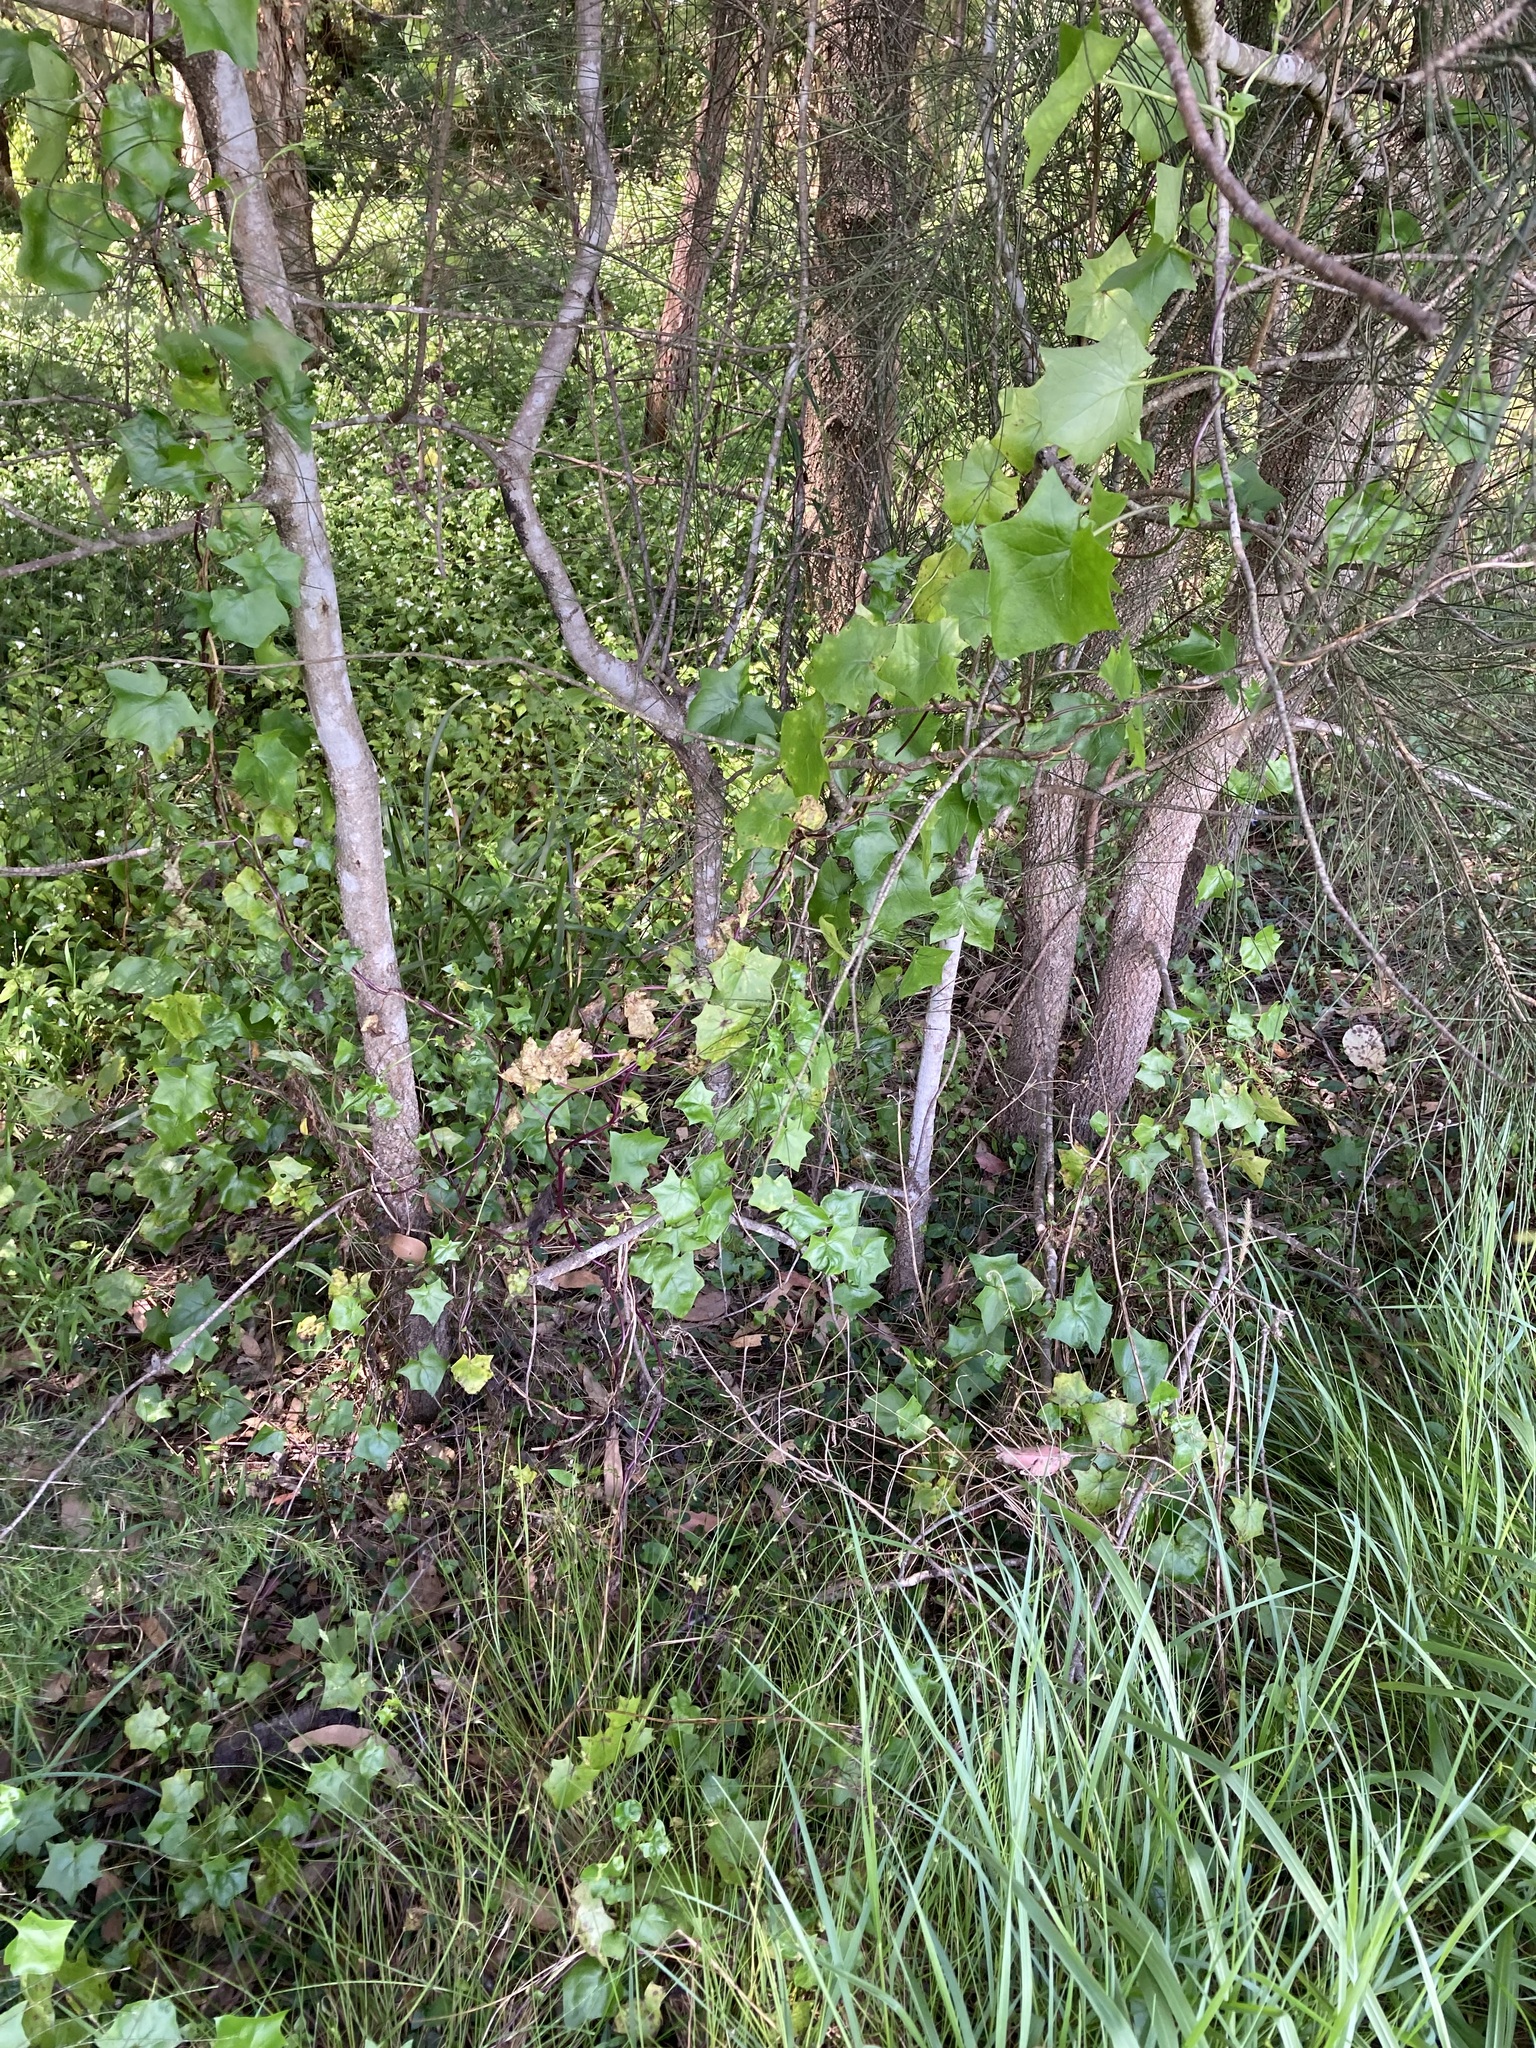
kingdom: Plantae
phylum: Tracheophyta
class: Magnoliopsida
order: Asterales
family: Asteraceae
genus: Delairea
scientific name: Delairea odorata
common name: Cape-ivy
